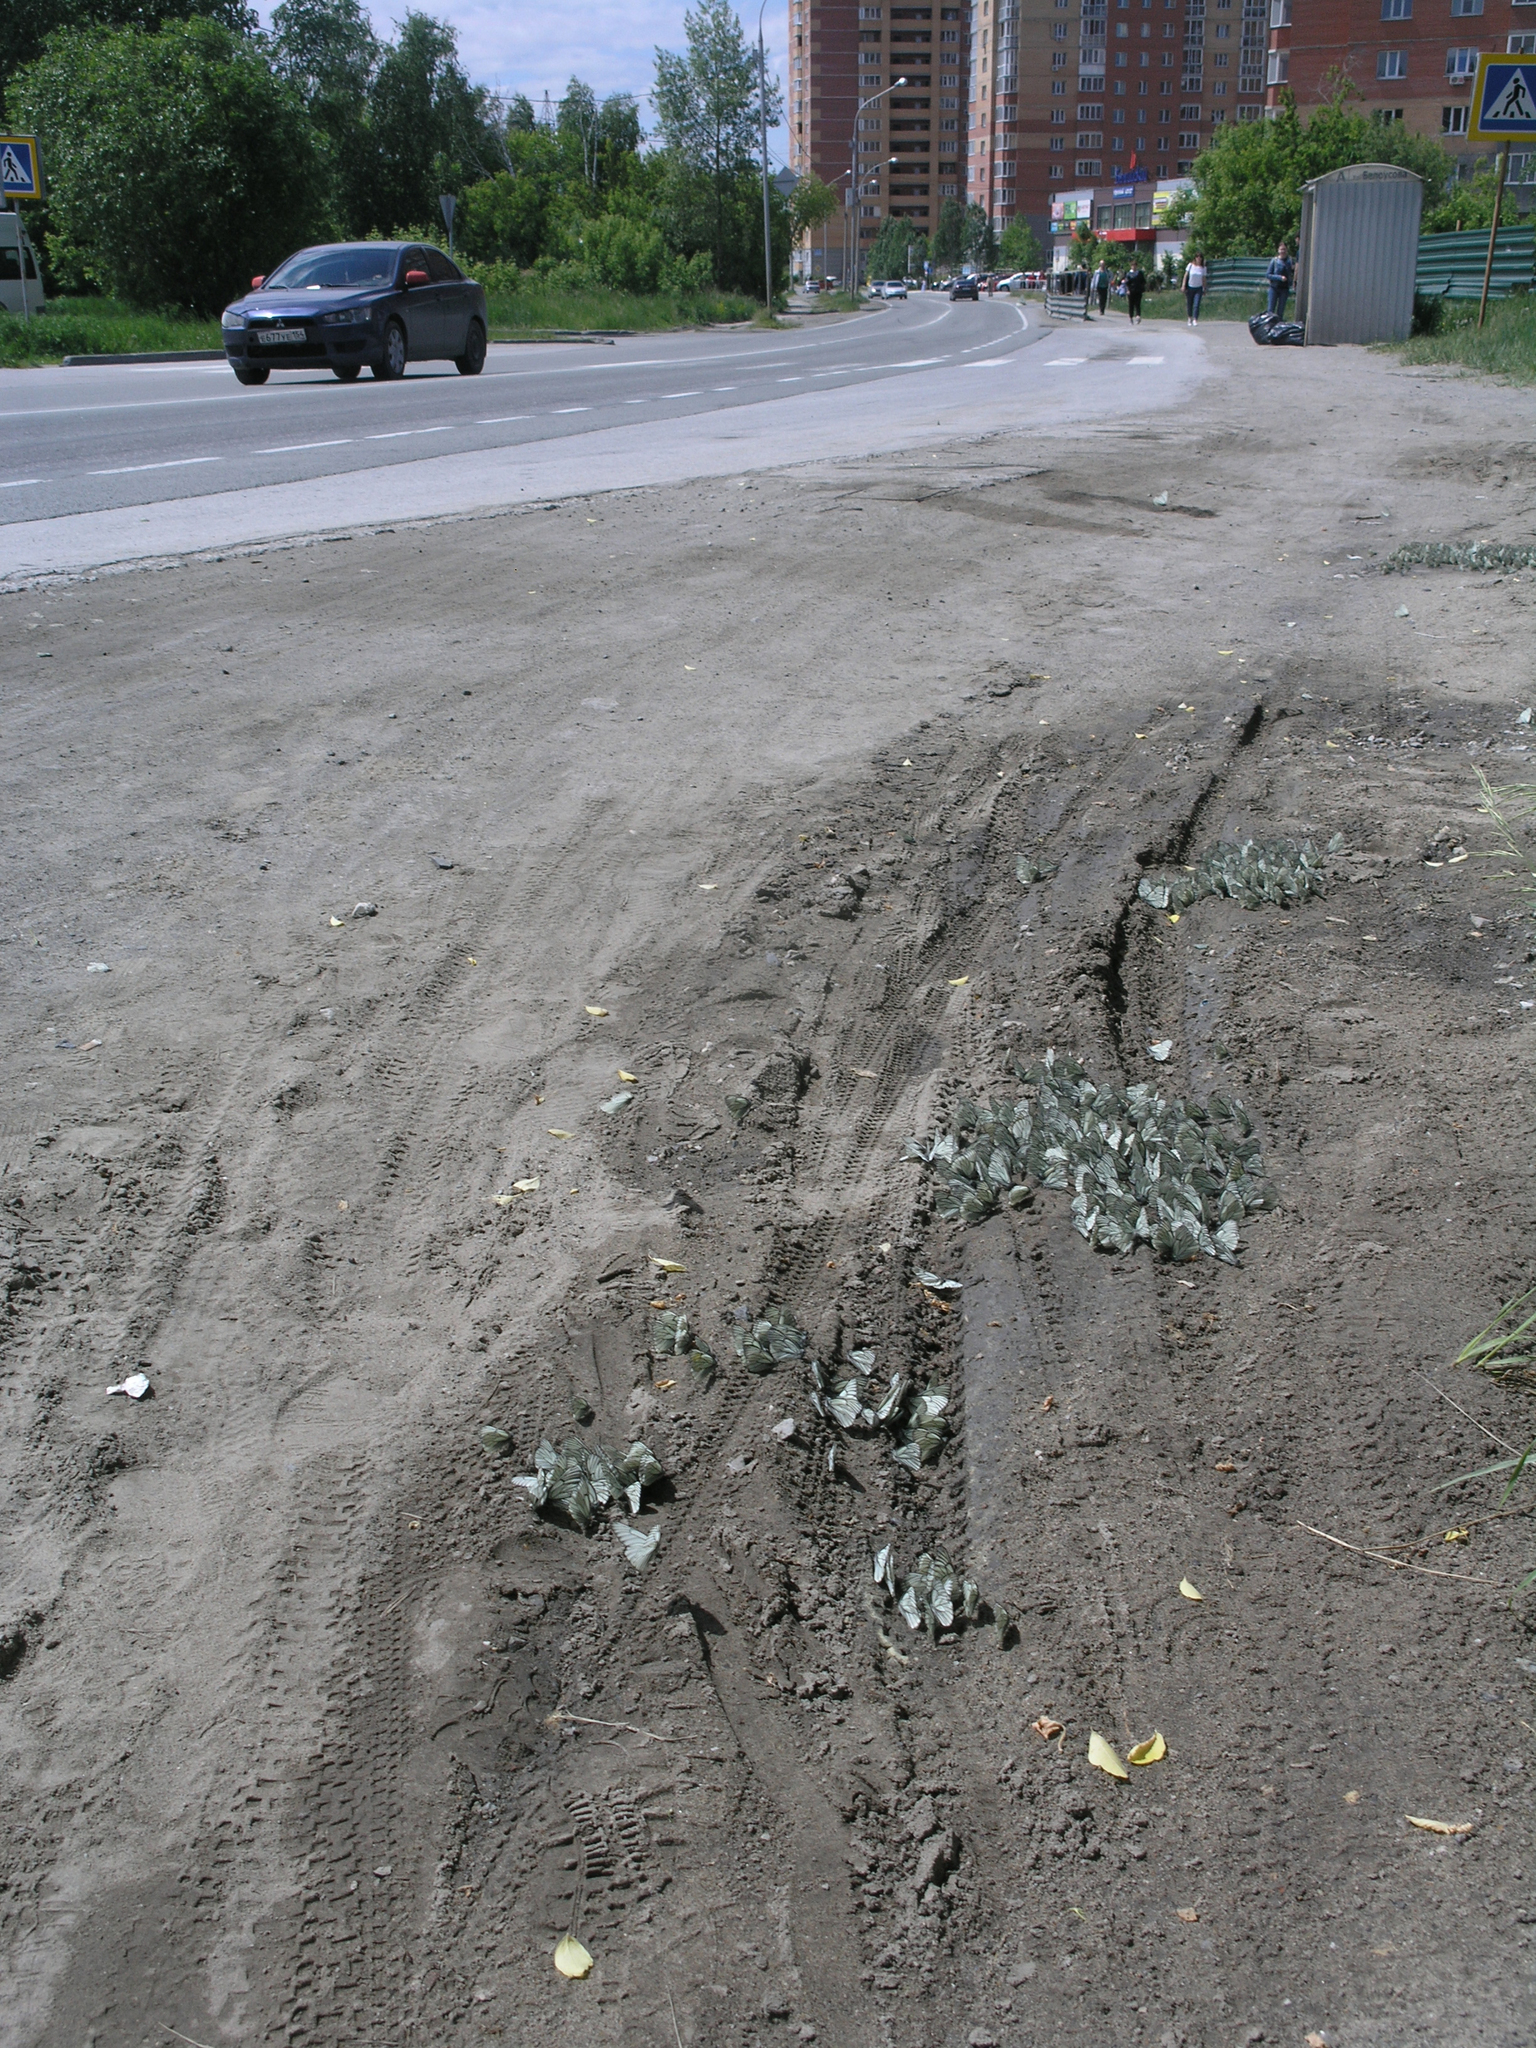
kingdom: Animalia
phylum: Arthropoda
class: Insecta
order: Lepidoptera
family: Pieridae
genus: Aporia
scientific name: Aporia crataegi
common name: Black-veined white
